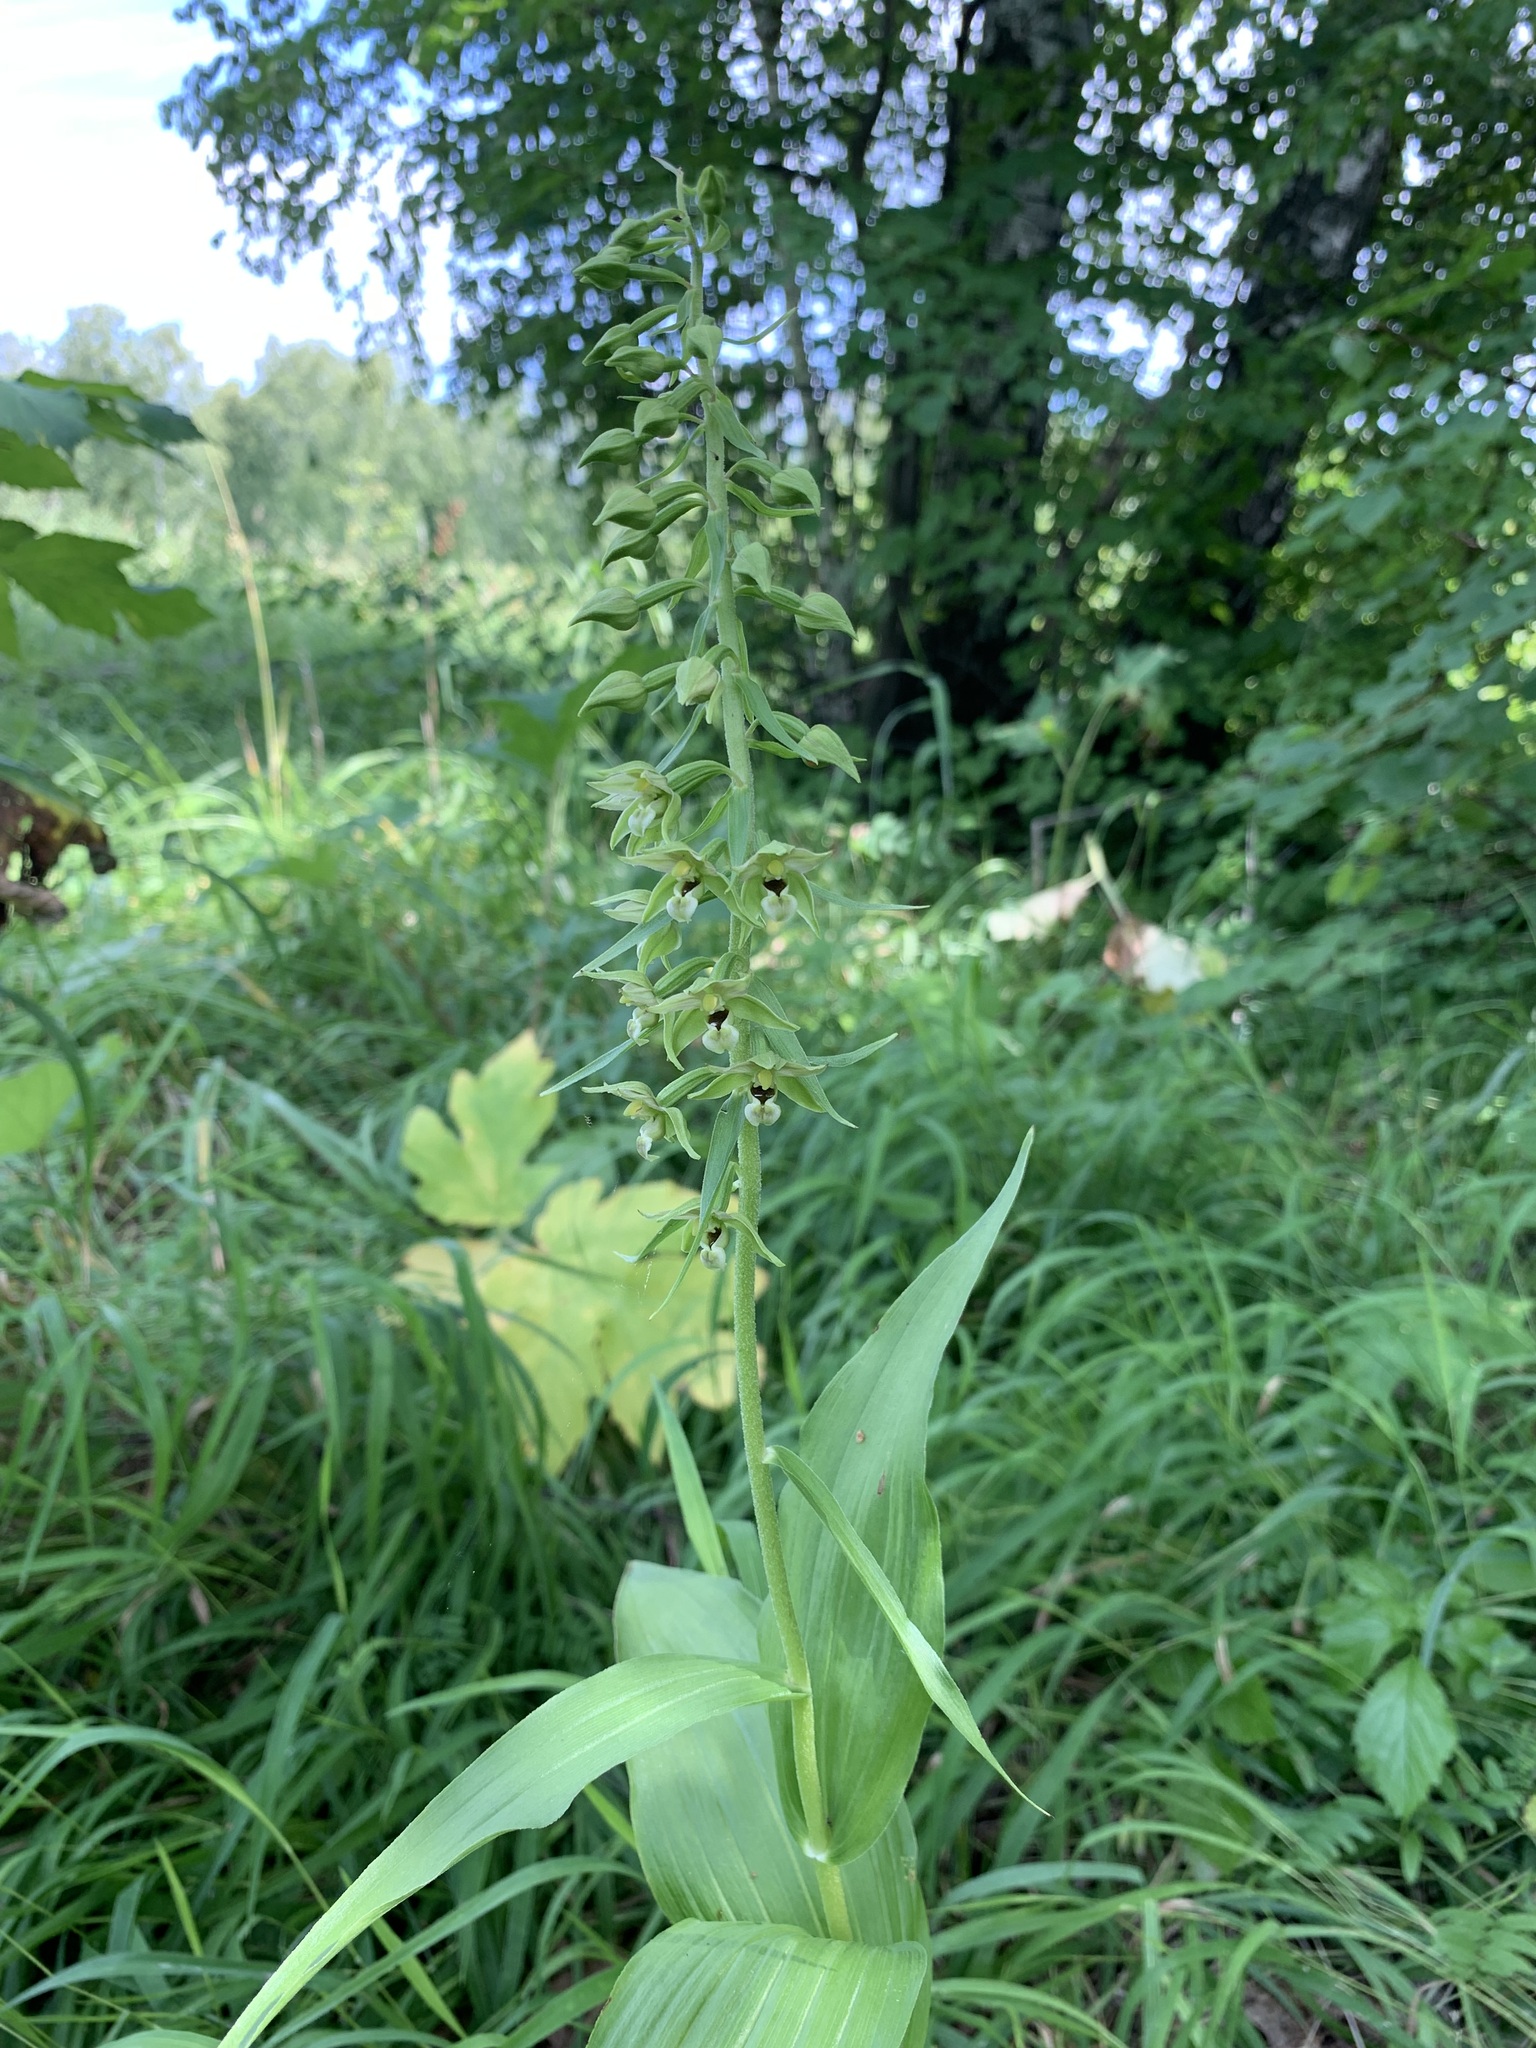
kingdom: Plantae
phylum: Tracheophyta
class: Liliopsida
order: Asparagales
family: Orchidaceae
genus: Epipactis
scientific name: Epipactis helleborine
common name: Broad-leaved helleborine
